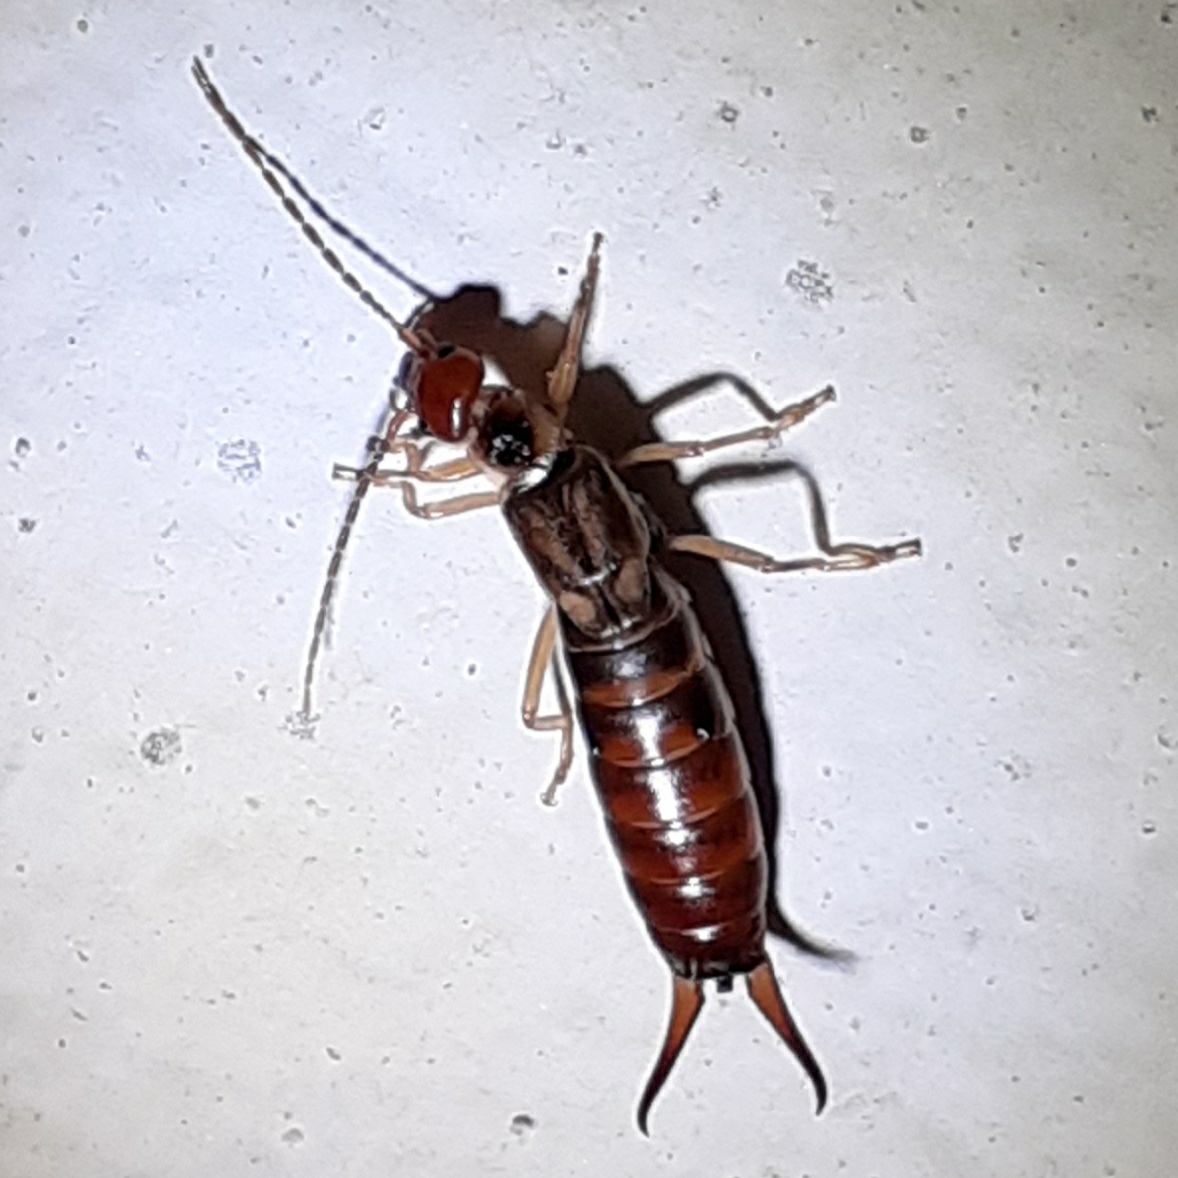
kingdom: Animalia
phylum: Arthropoda
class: Insecta
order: Dermaptera
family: Forficulidae
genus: Forficula
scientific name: Forficula
